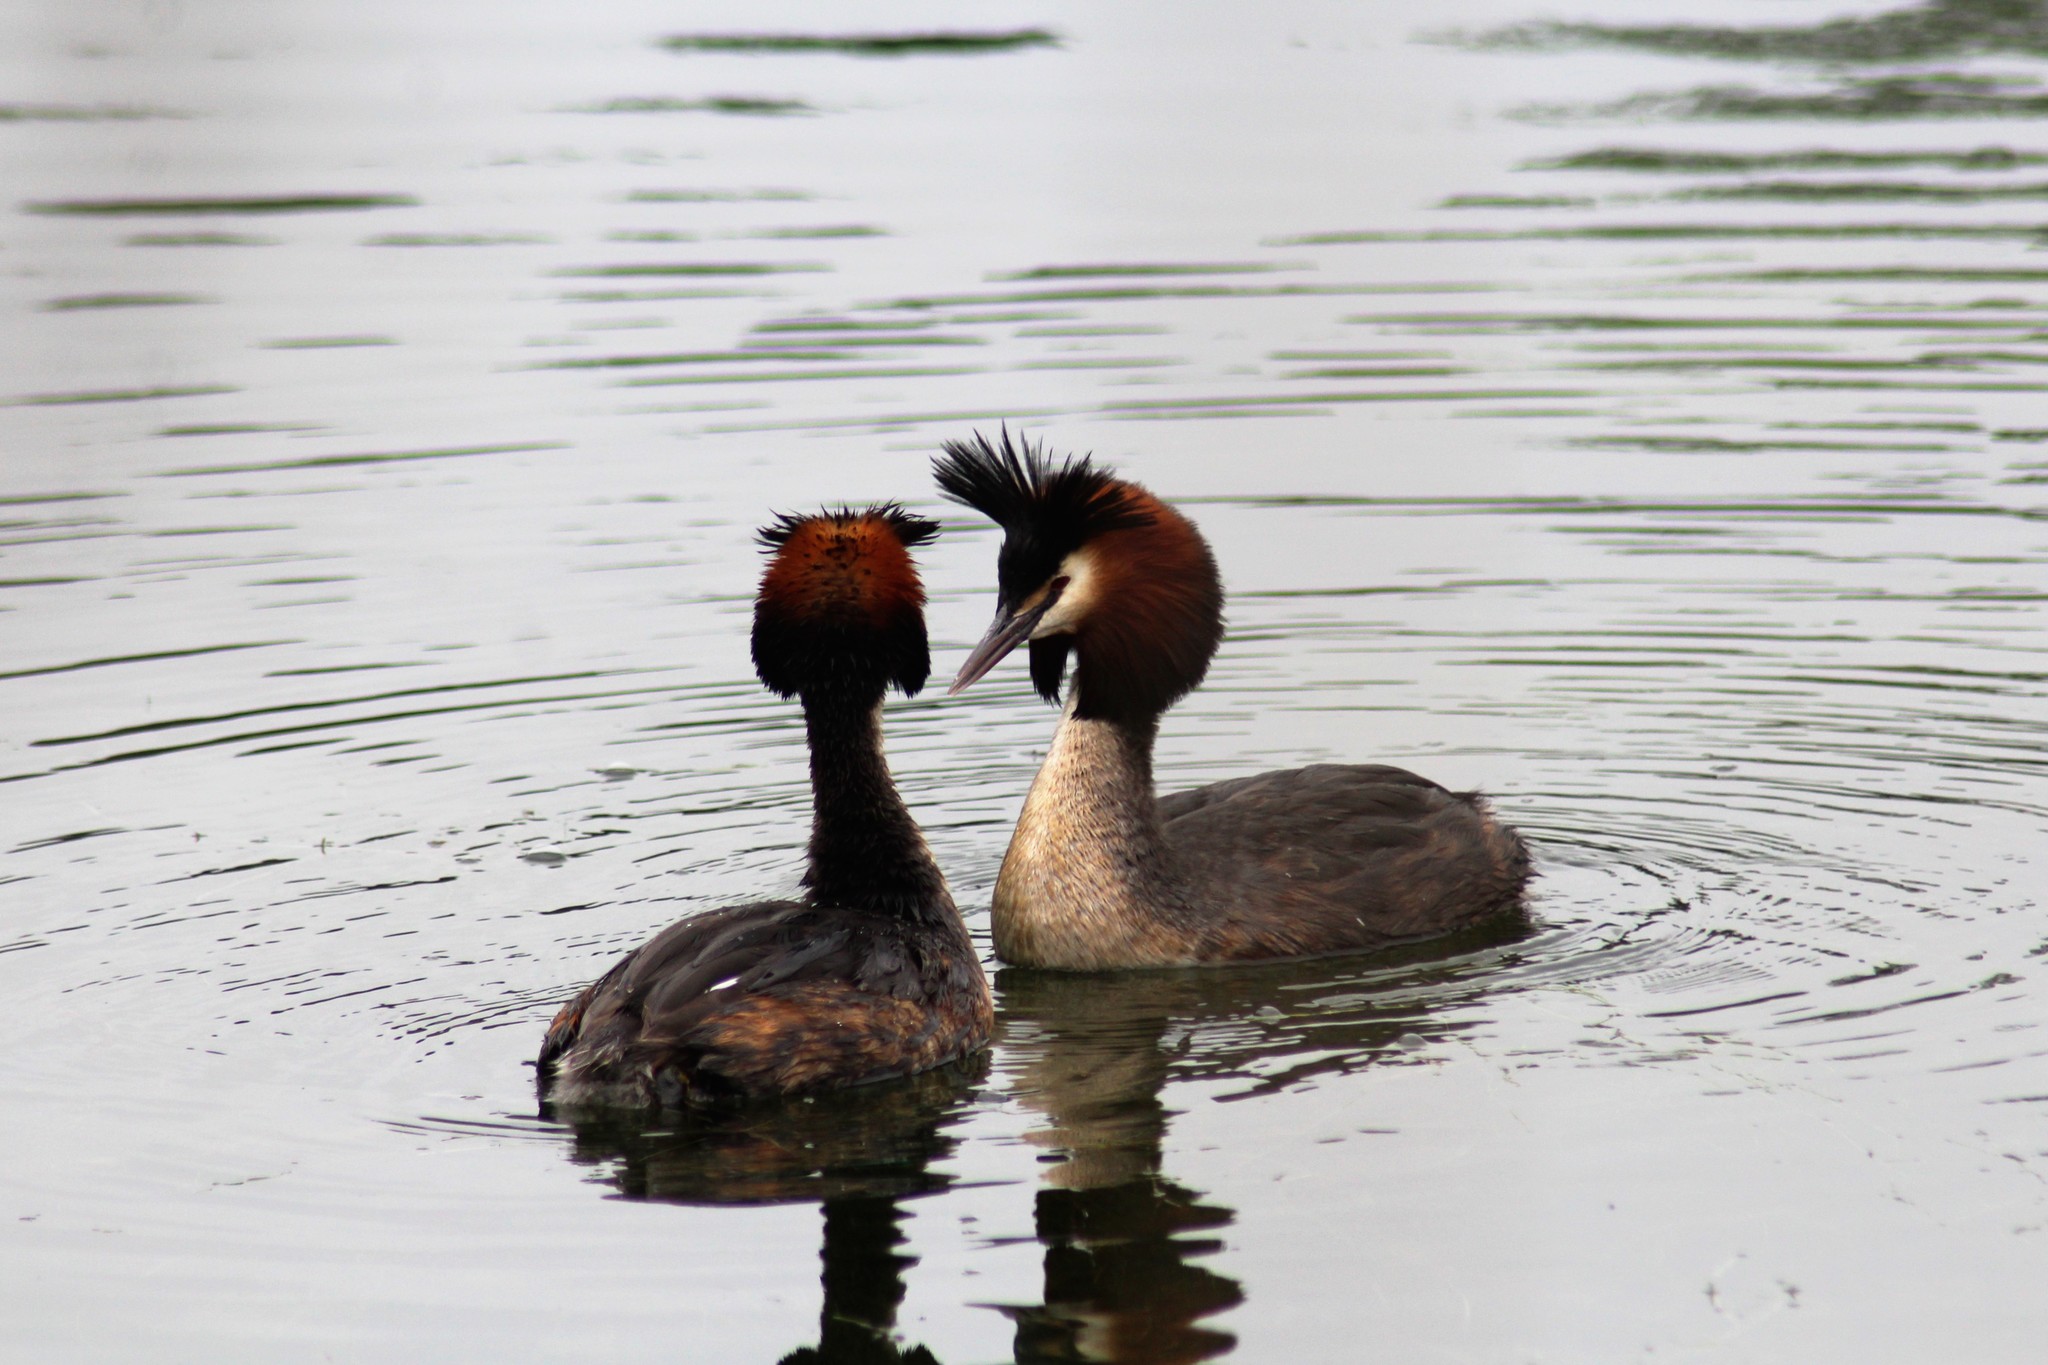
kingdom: Animalia
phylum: Chordata
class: Aves
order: Podicipediformes
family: Podicipedidae
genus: Podiceps
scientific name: Podiceps cristatus
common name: Great crested grebe
